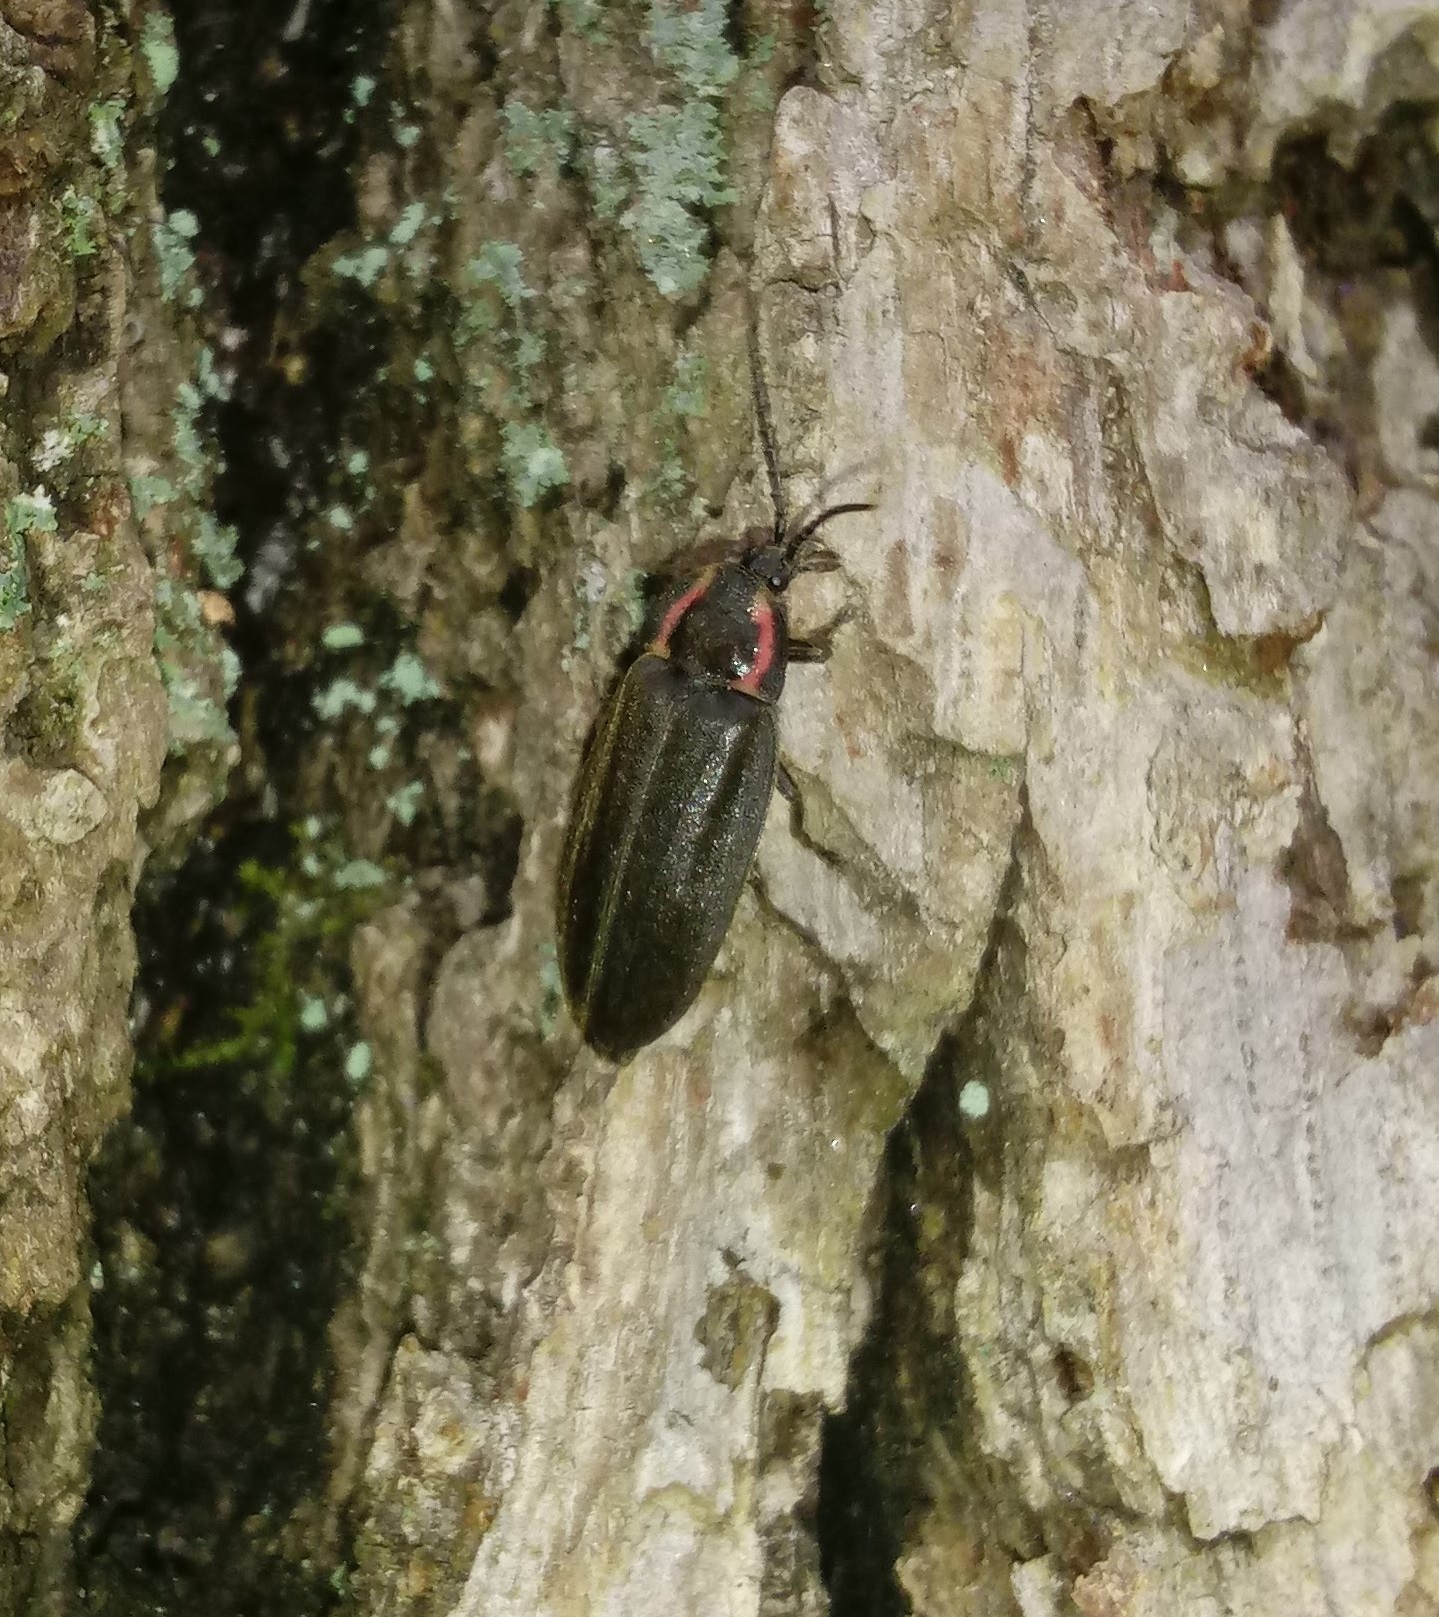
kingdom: Animalia
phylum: Arthropoda
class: Insecta
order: Coleoptera
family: Lampyridae
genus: Photinus
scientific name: Photinus corrusca
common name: Winter firefly
